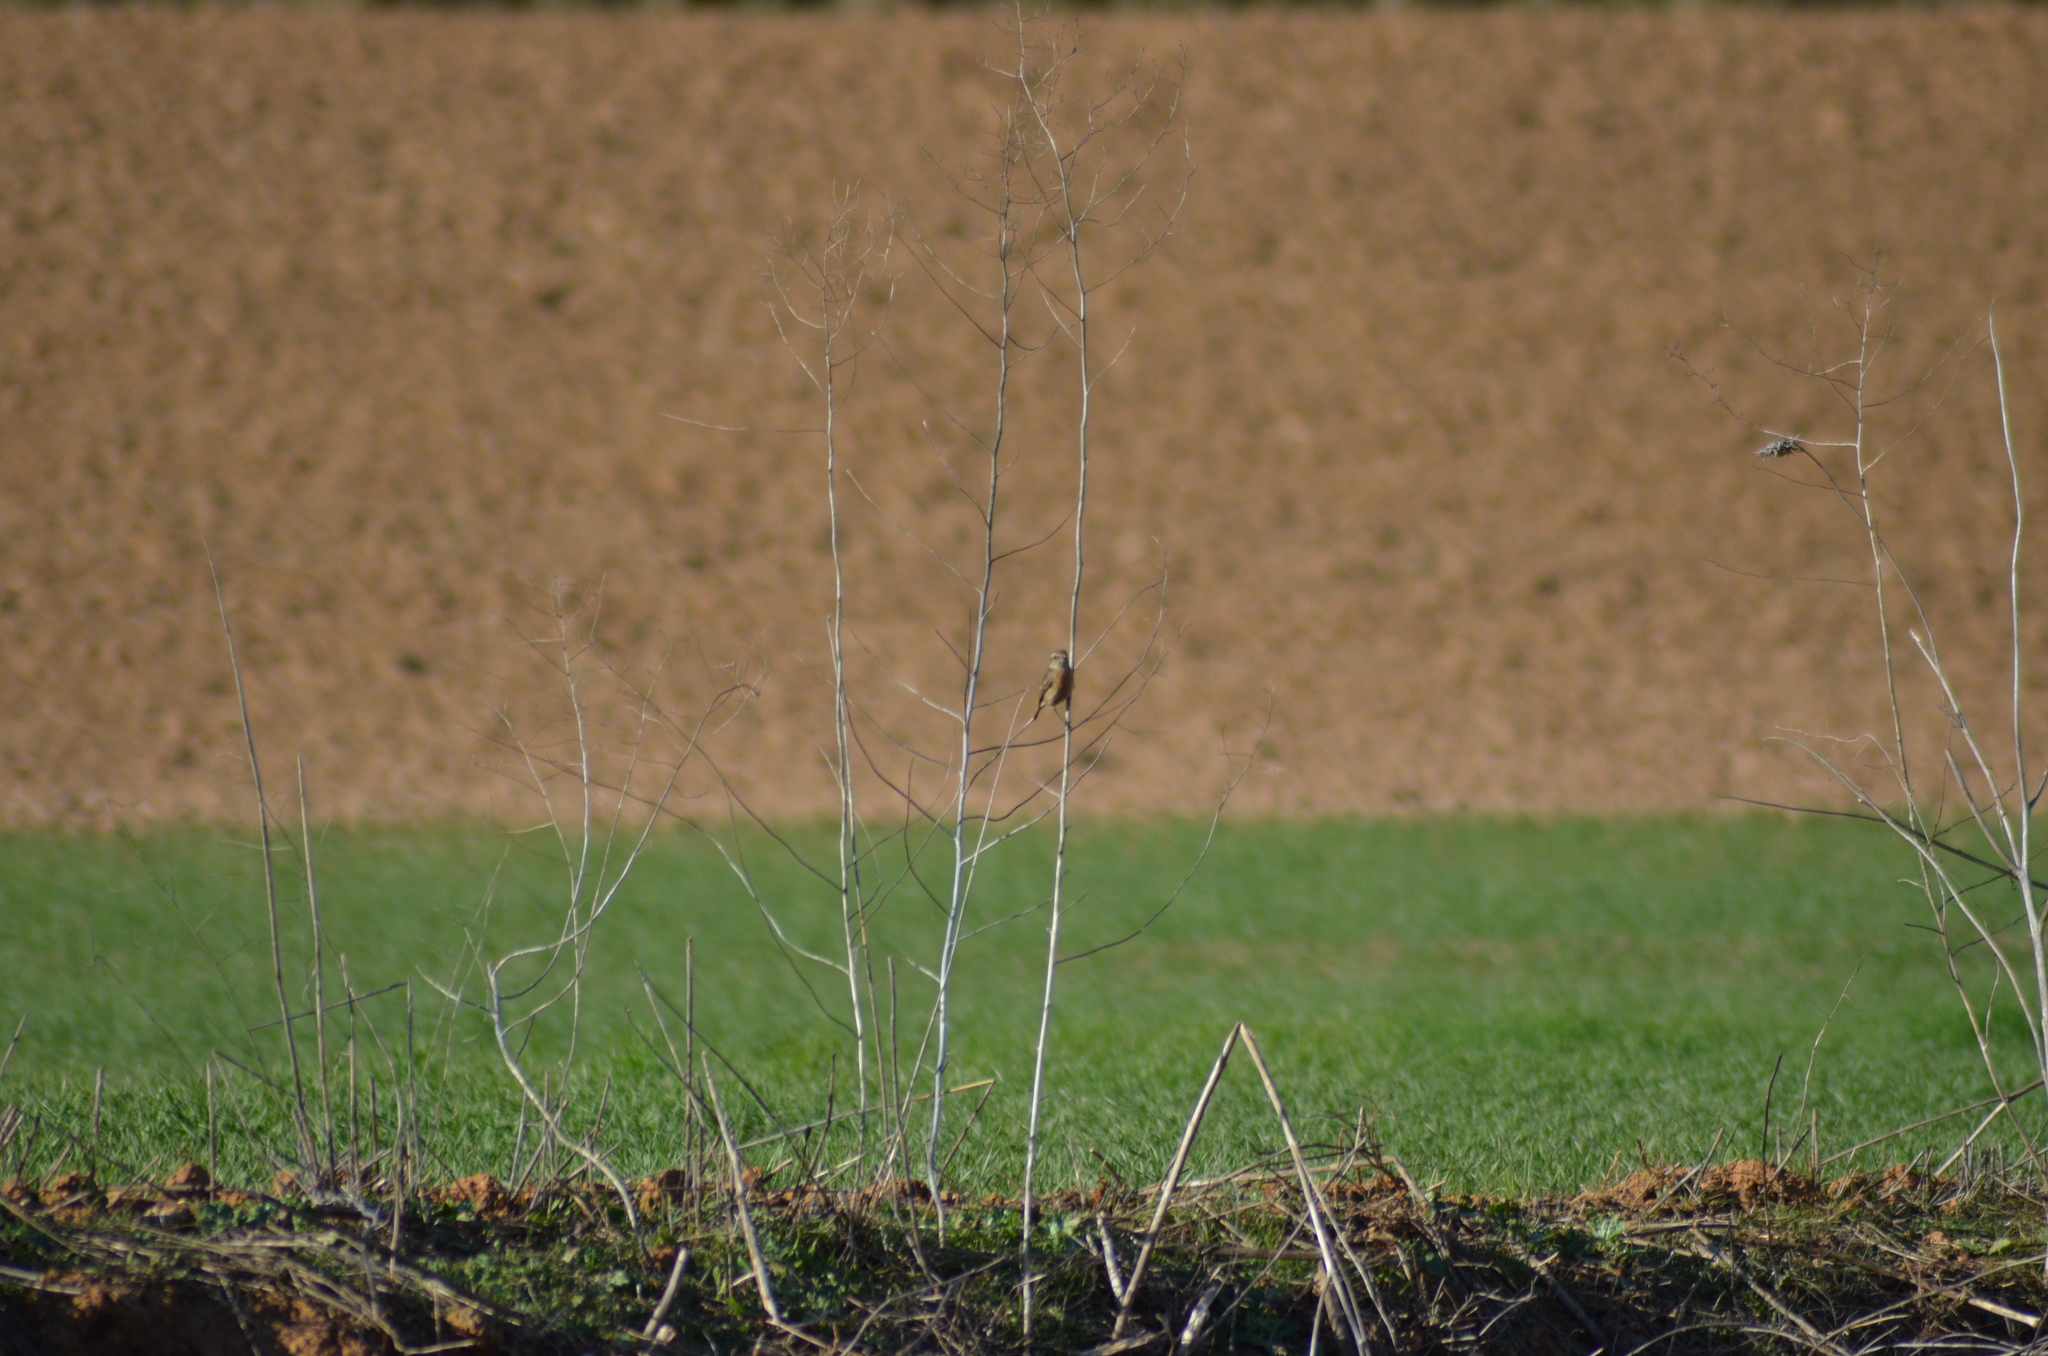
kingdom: Animalia
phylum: Chordata
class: Aves
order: Passeriformes
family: Muscicapidae
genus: Saxicola
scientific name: Saxicola rubicola
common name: European stonechat
